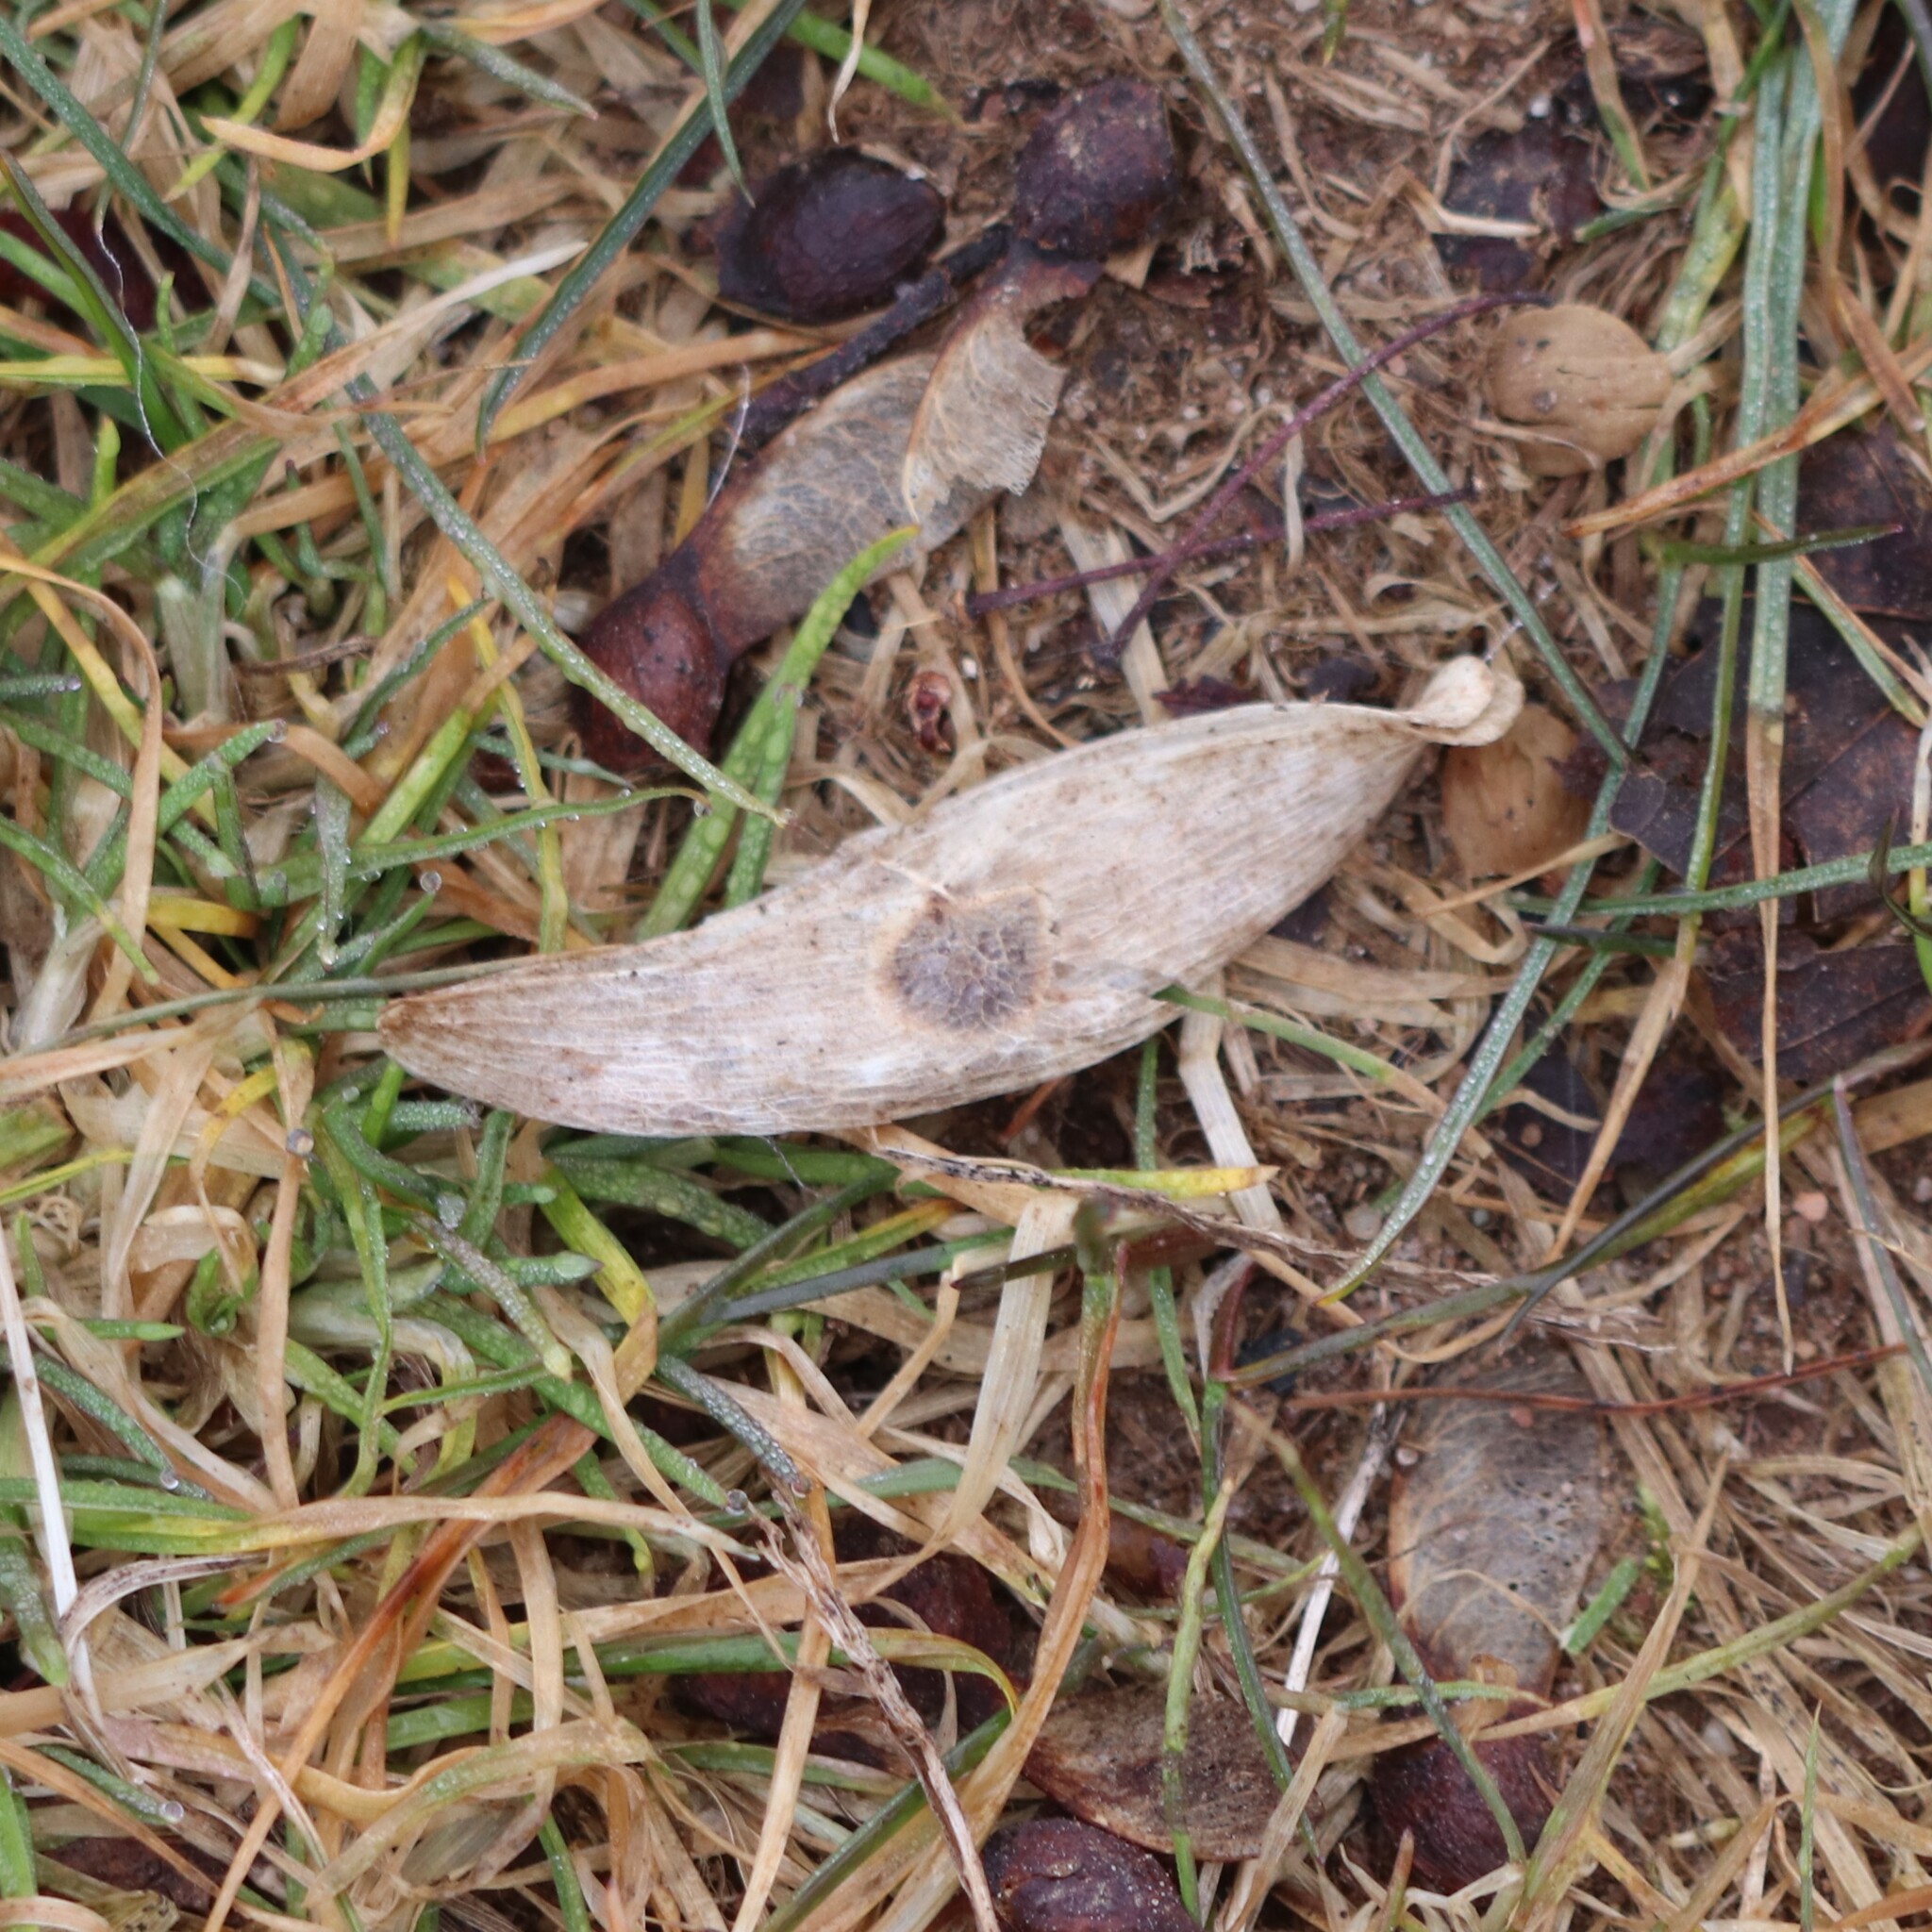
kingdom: Plantae
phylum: Tracheophyta
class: Magnoliopsida
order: Sapindales
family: Simaroubaceae
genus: Ailanthus
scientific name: Ailanthus altissima
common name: Tree-of-heaven
